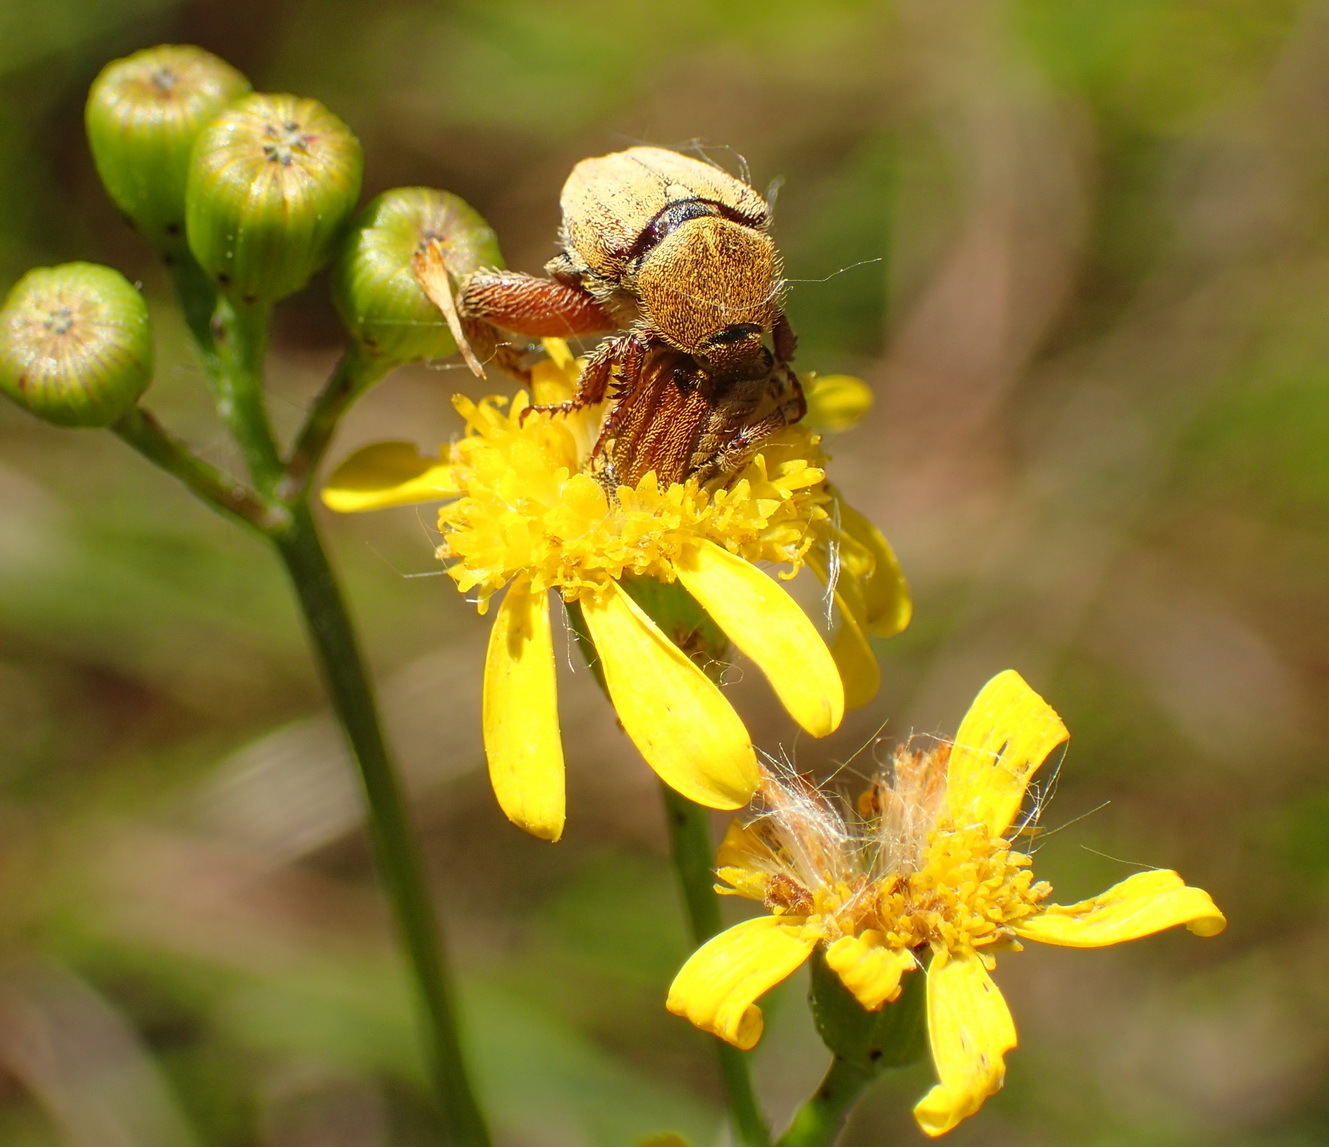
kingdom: Plantae
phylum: Tracheophyta
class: Magnoliopsida
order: Asterales
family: Asteraceae
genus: Senecio
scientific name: Senecio burchellii
